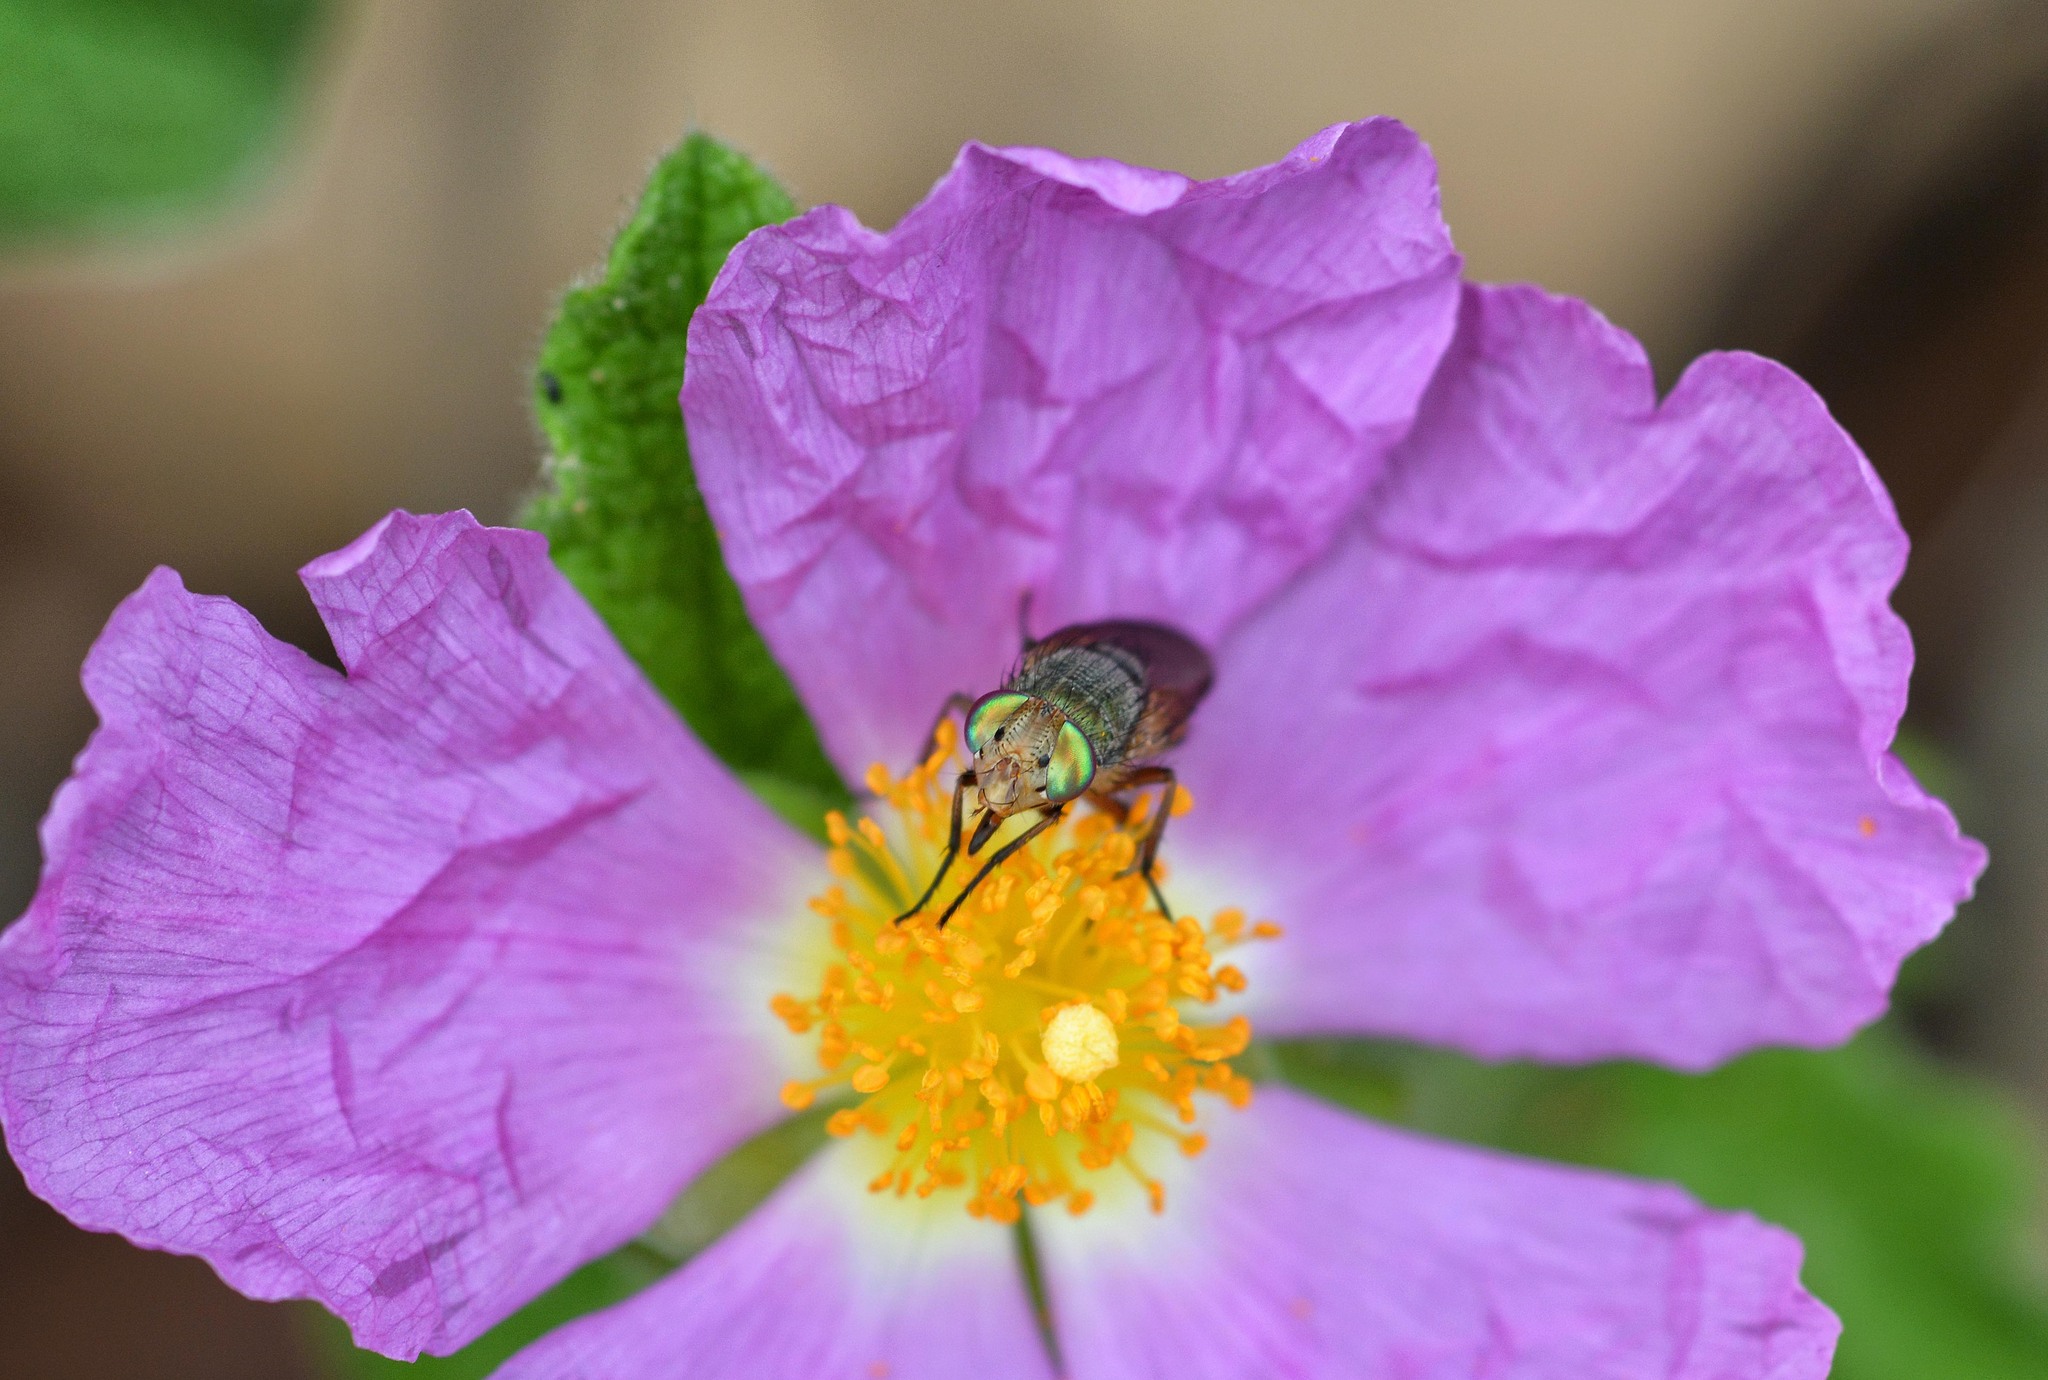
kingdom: Animalia
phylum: Arthropoda
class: Insecta
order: Diptera
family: Calliphoridae
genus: Rhyncomya
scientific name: Rhyncomya peusi
